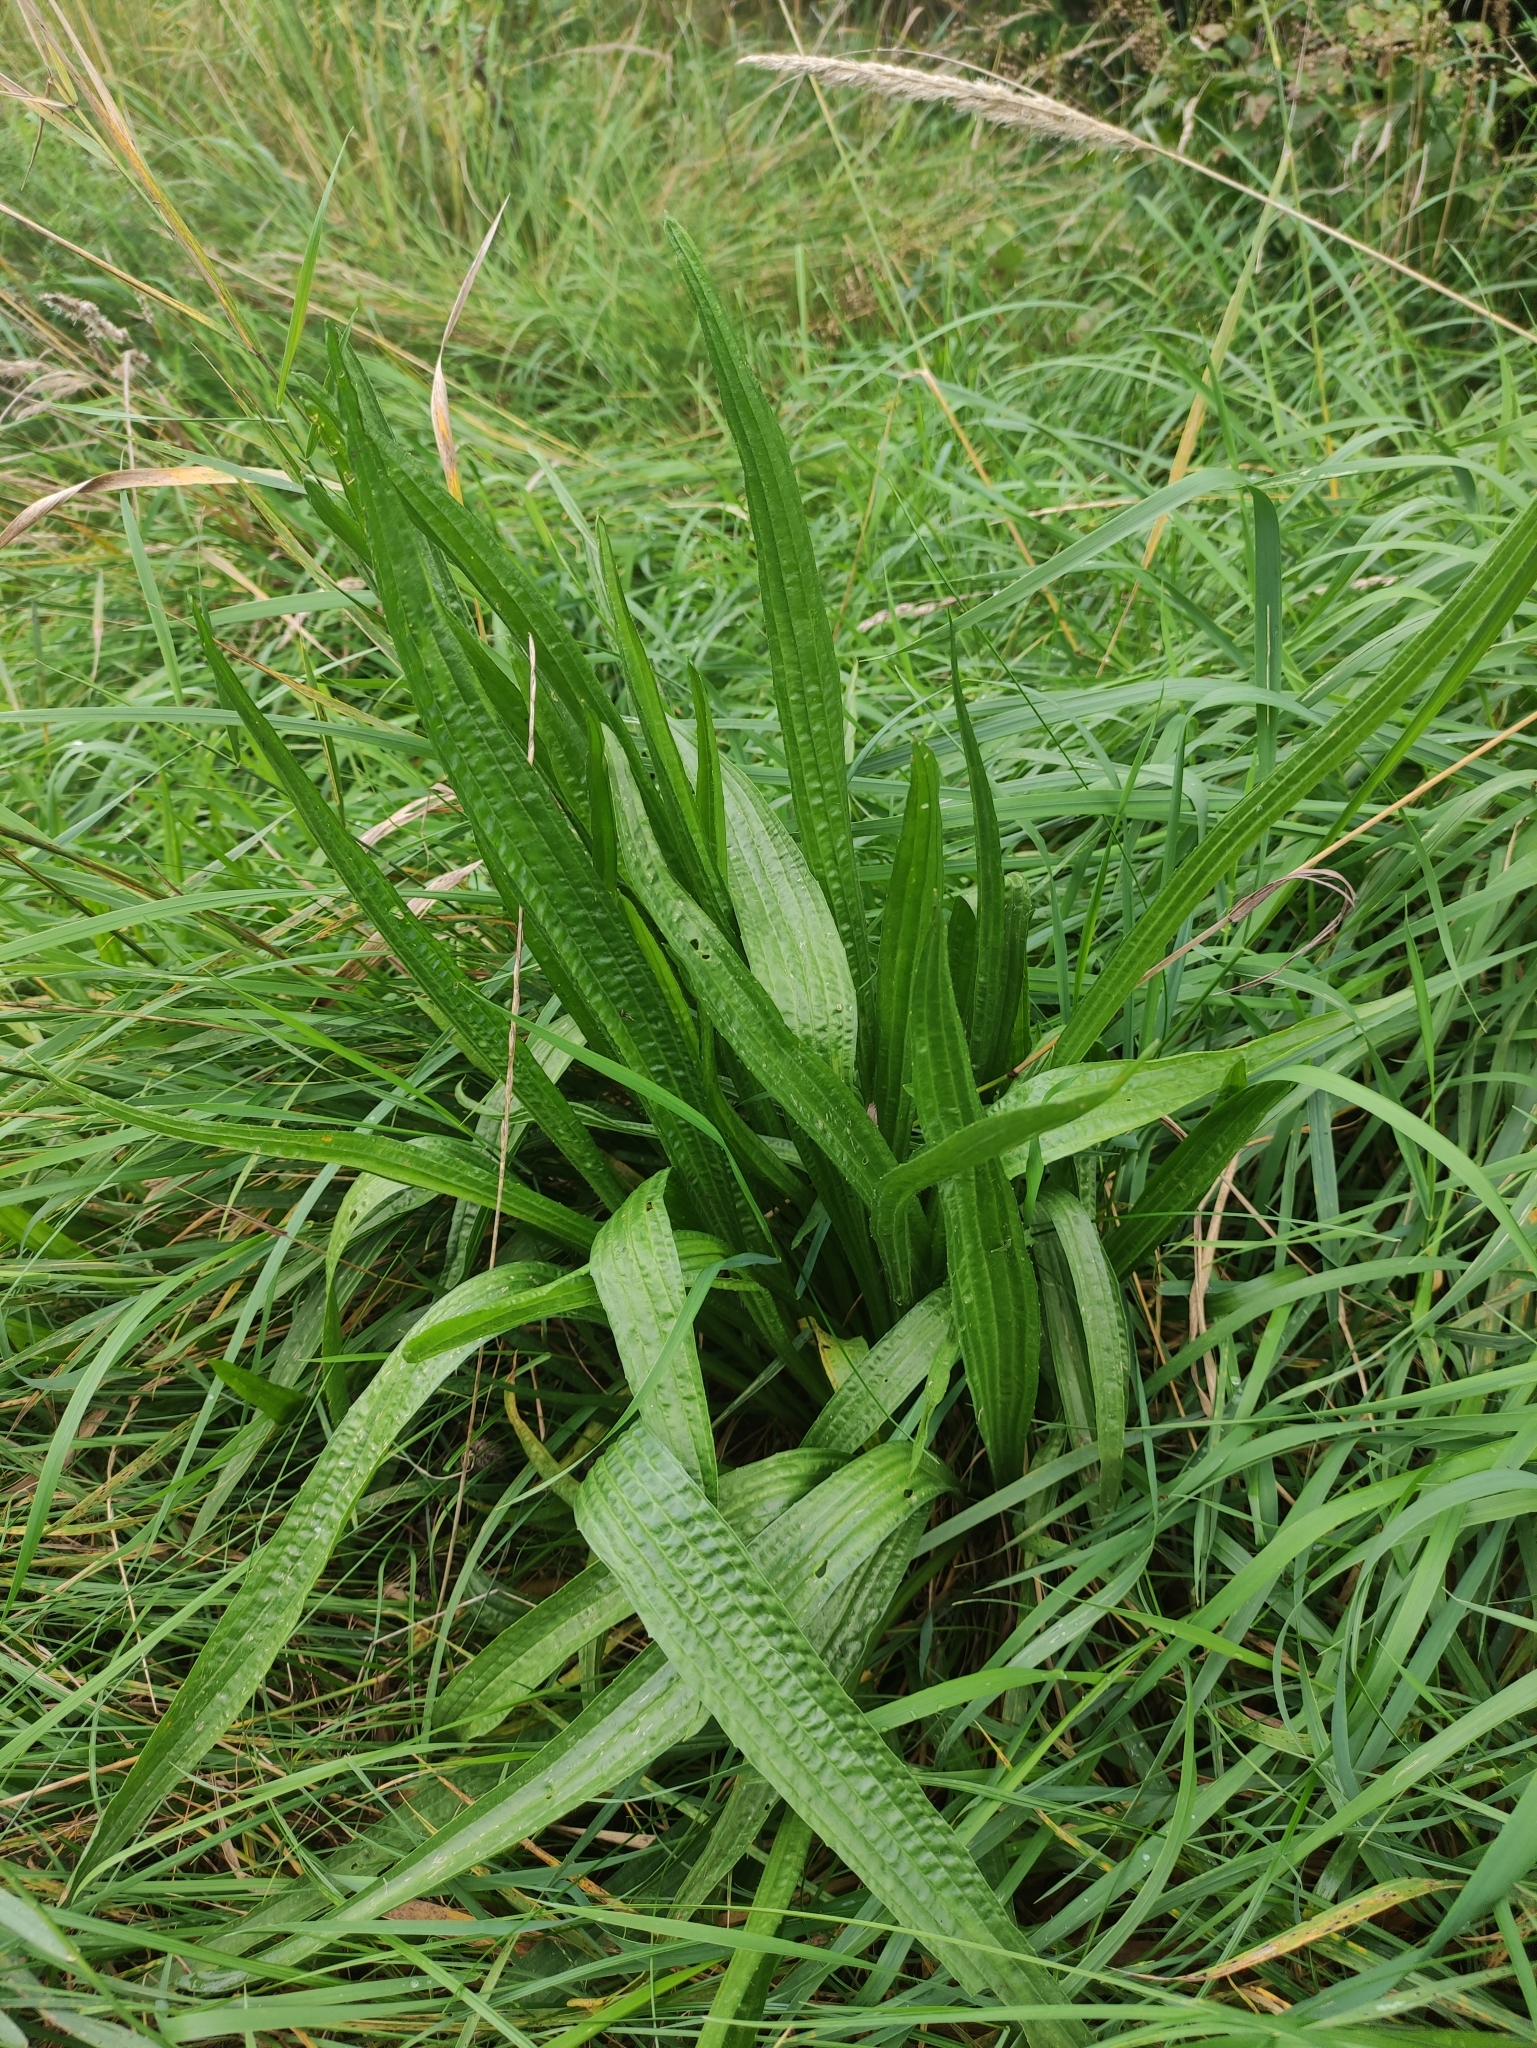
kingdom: Plantae
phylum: Tracheophyta
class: Magnoliopsida
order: Lamiales
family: Plantaginaceae
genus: Plantago
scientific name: Plantago lanceolata
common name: Ribwort plantain
